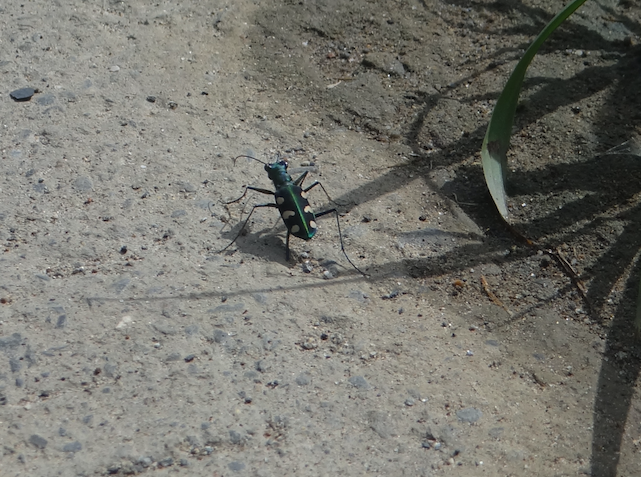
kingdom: Animalia
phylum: Arthropoda
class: Insecta
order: Coleoptera
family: Carabidae
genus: Cicindela
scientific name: Cicindela batesi
